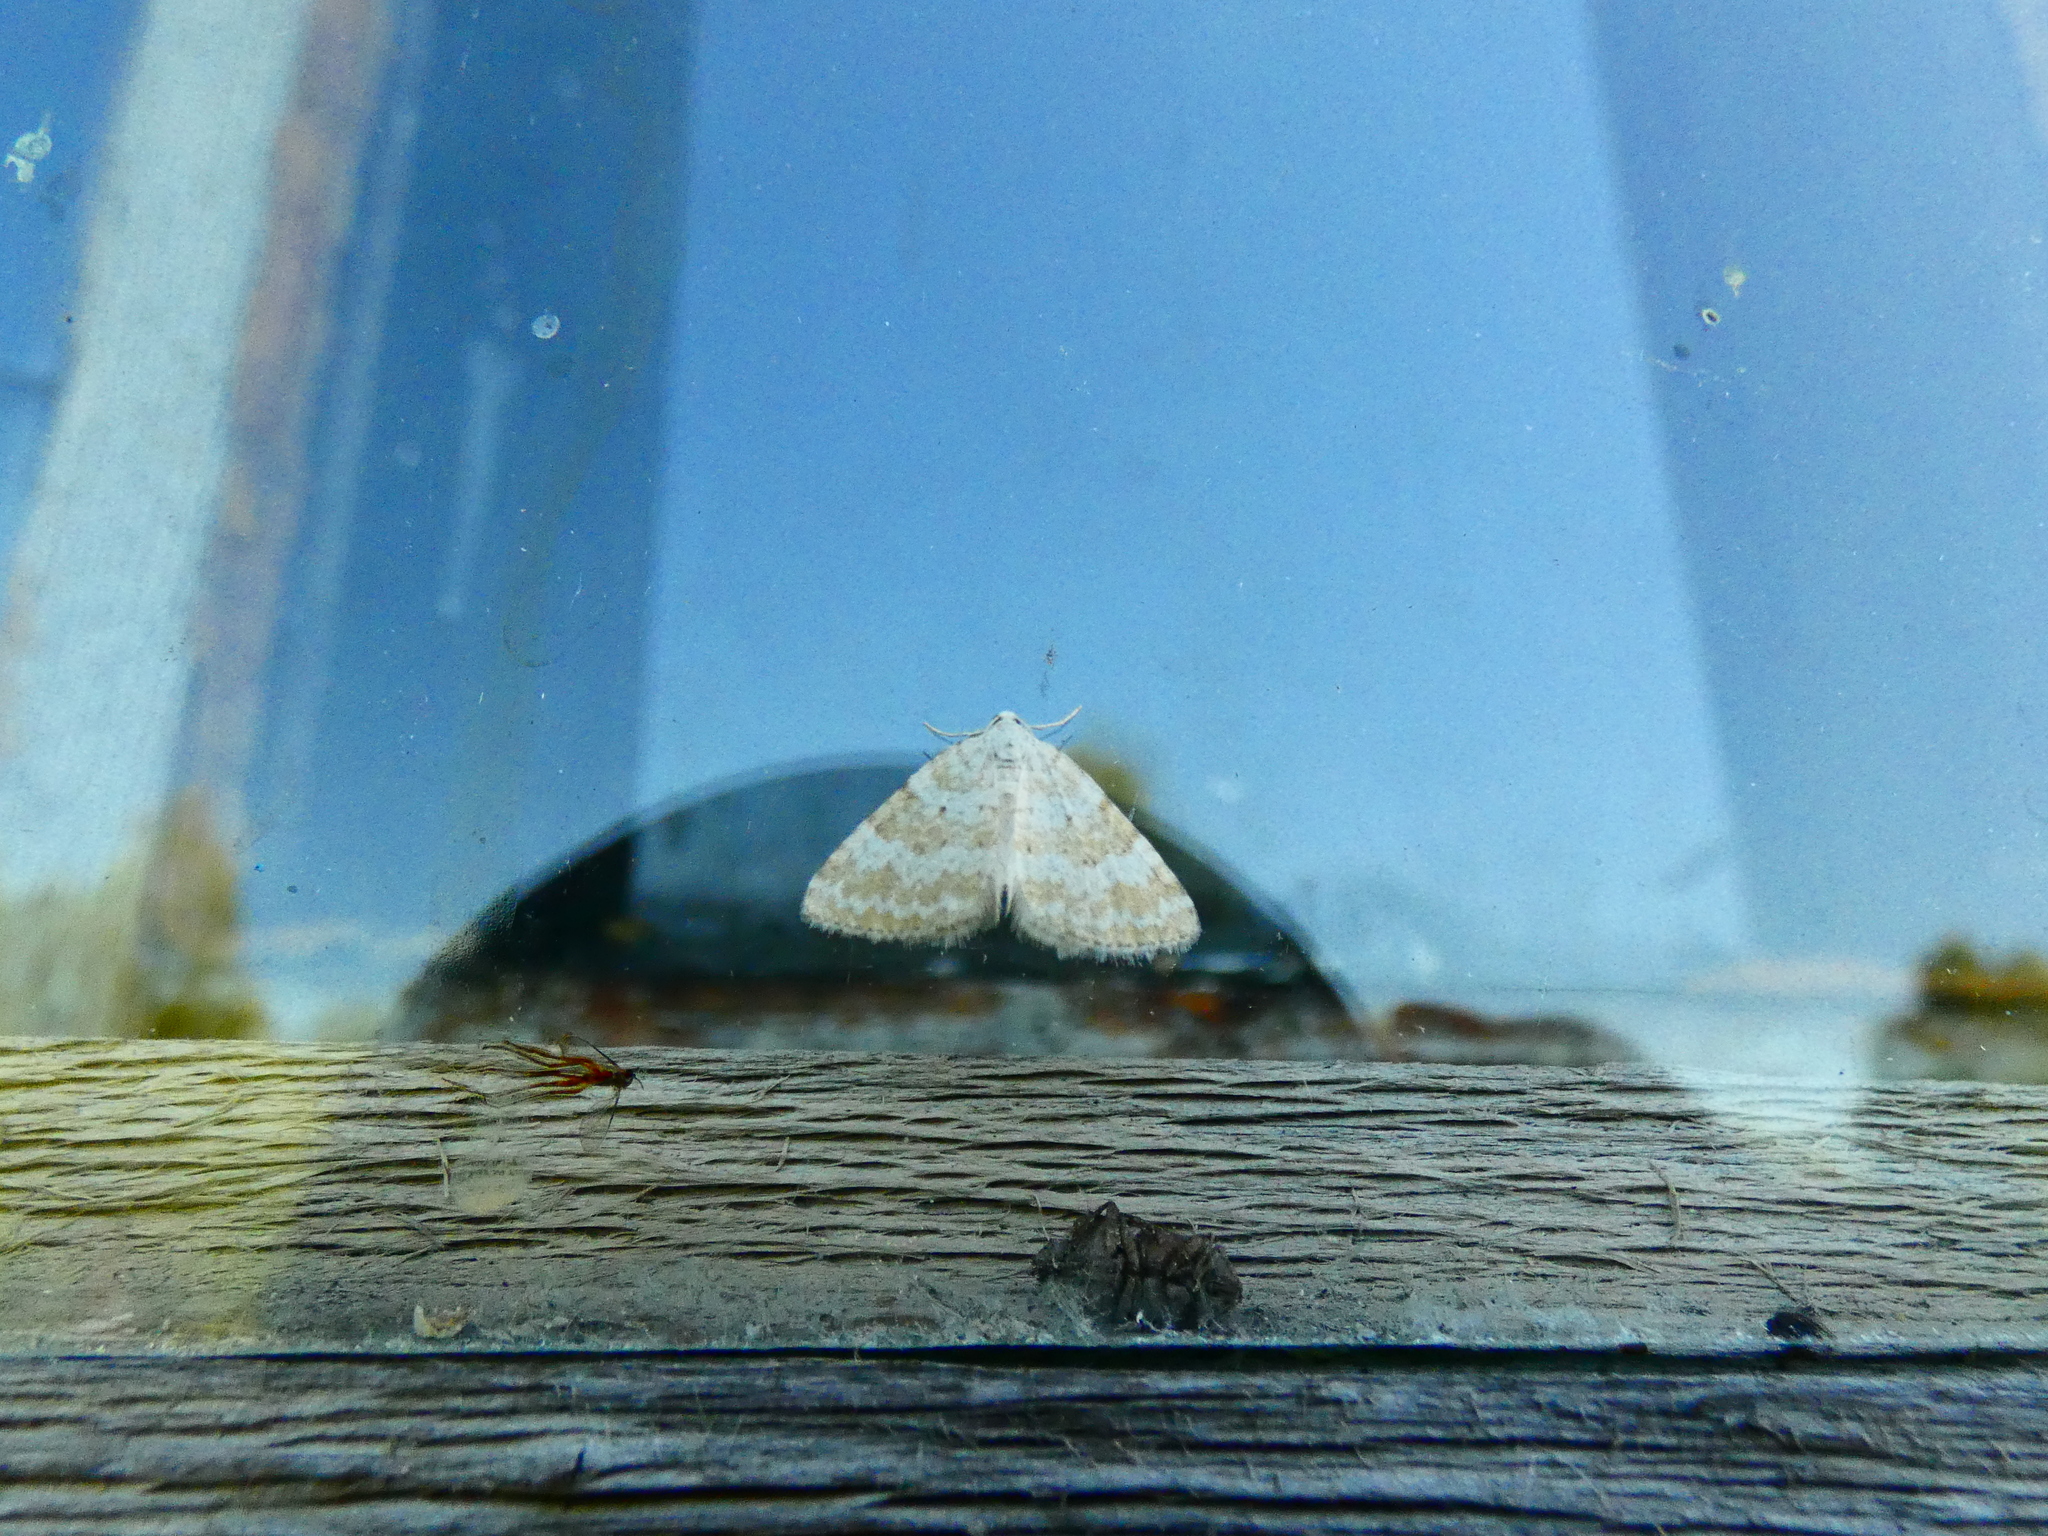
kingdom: Animalia
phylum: Arthropoda
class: Insecta
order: Lepidoptera
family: Geometridae
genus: Perizoma
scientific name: Perizoma albulata
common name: Grass rivulet
